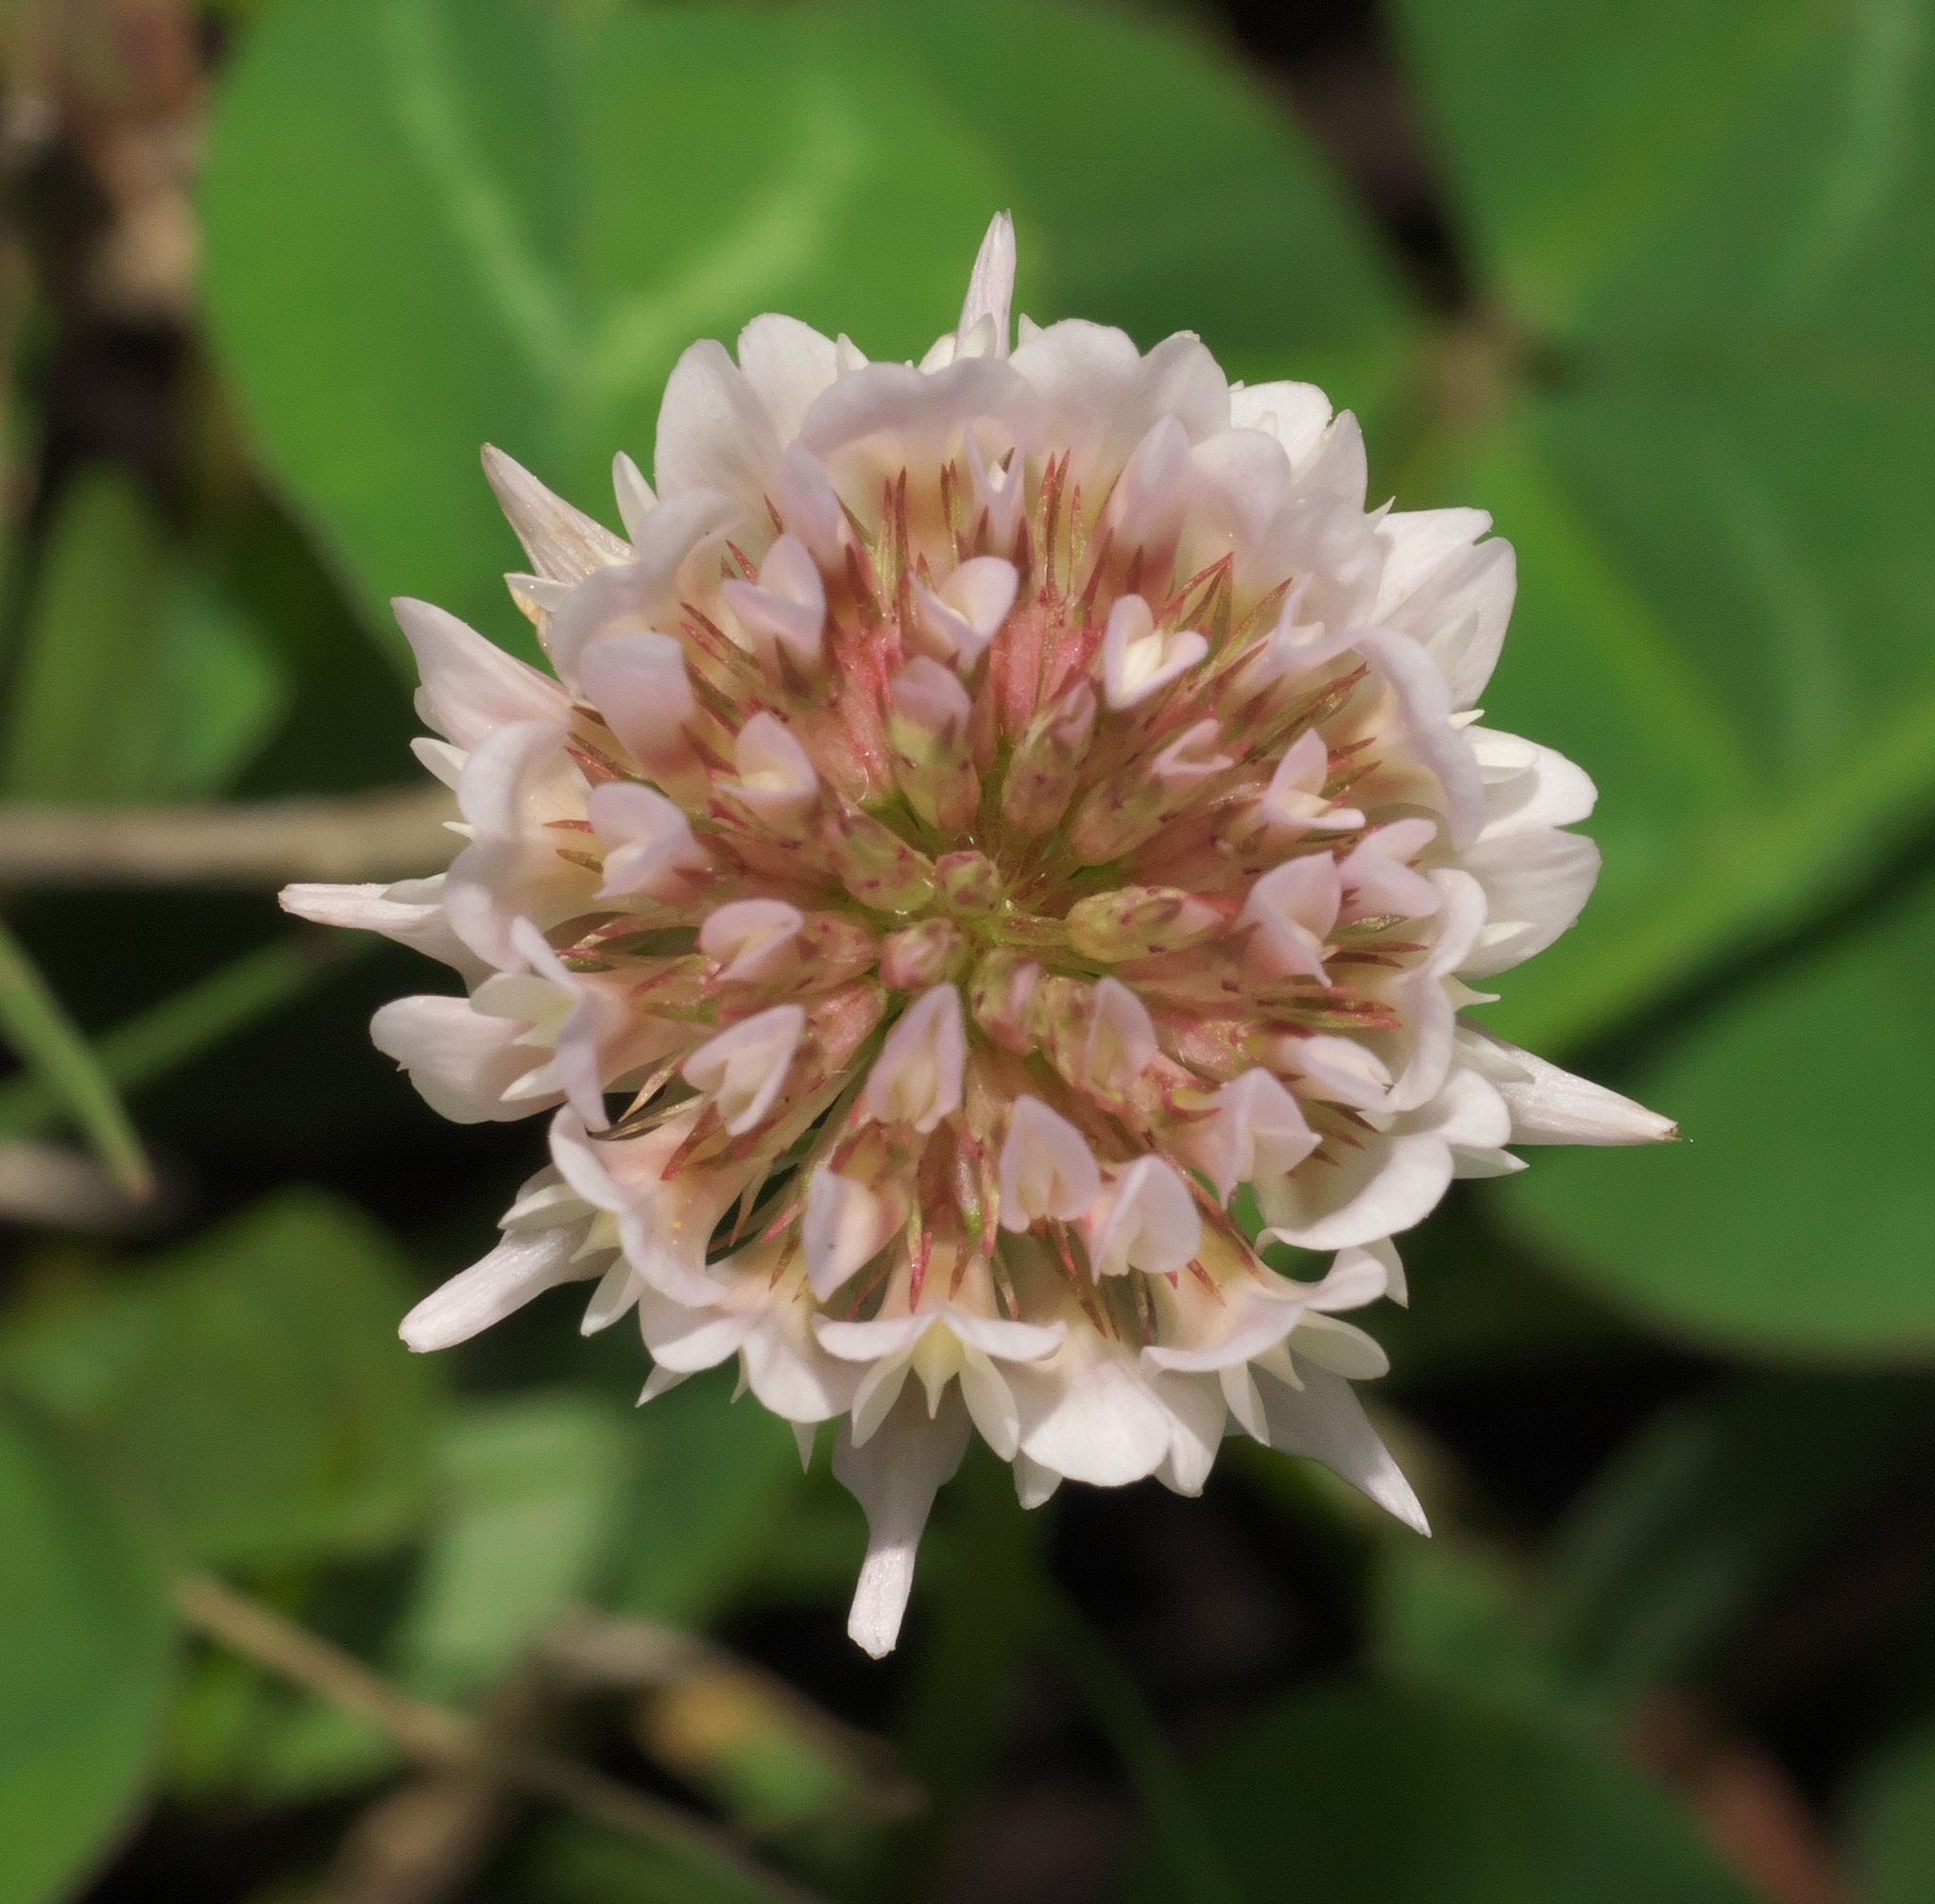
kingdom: Plantae
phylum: Tracheophyta
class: Magnoliopsida
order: Fabales
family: Fabaceae
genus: Trifolium
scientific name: Trifolium repens
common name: White clover
